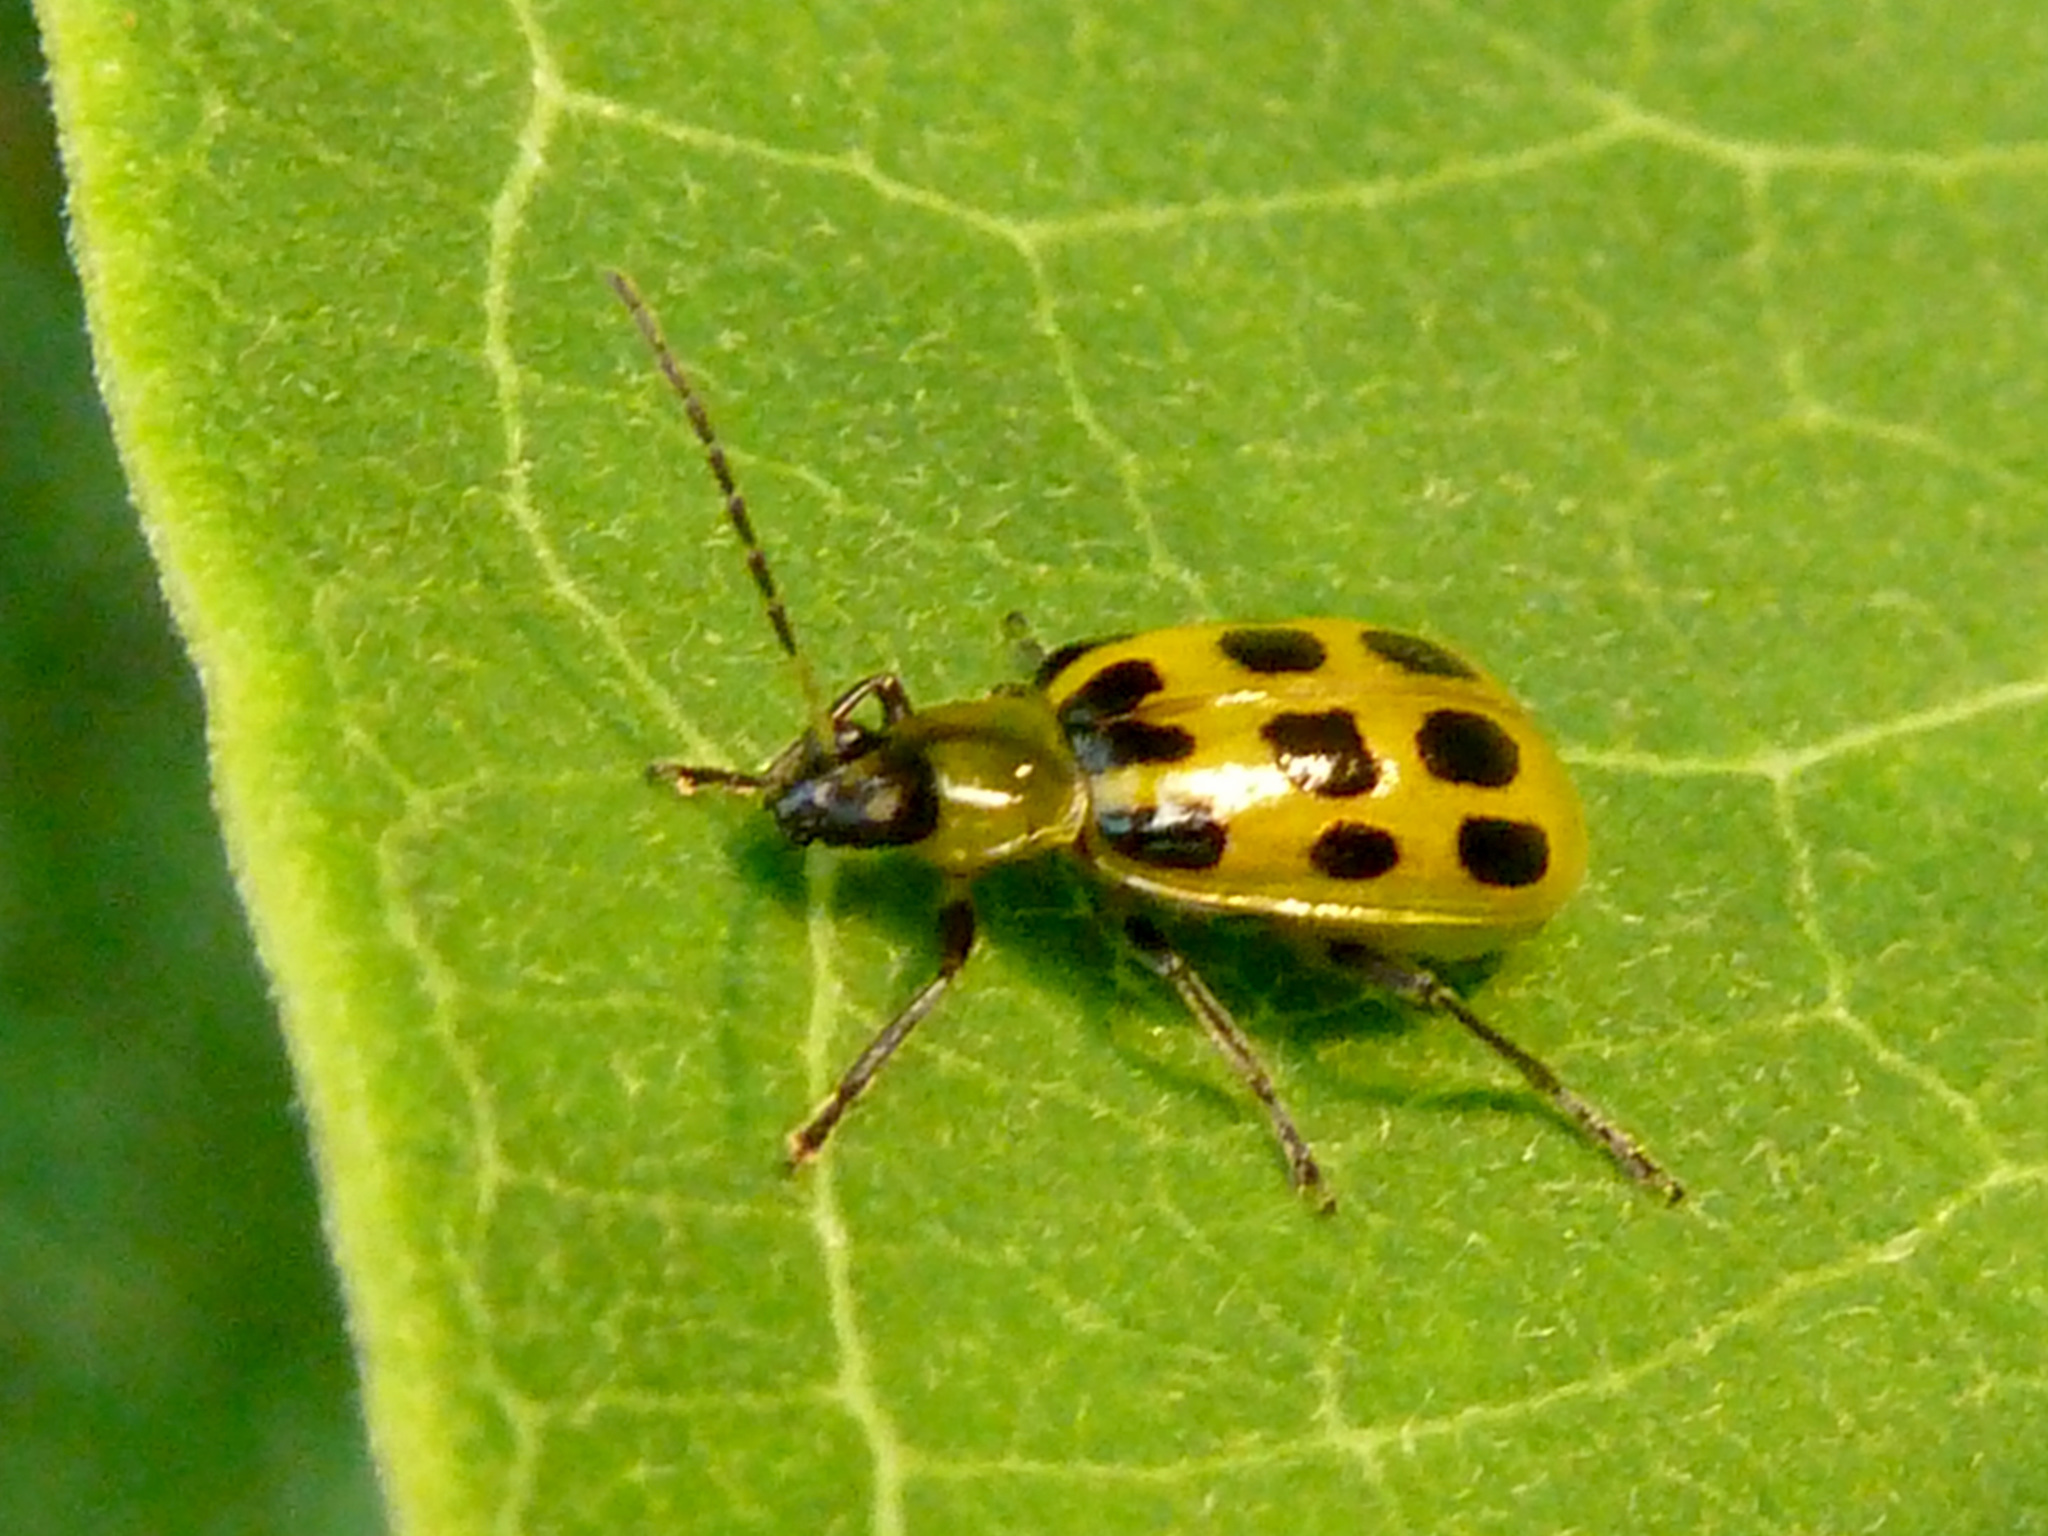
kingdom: Animalia
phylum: Arthropoda
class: Insecta
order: Coleoptera
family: Chrysomelidae
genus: Diabrotica
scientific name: Diabrotica undecimpunctata
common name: Spotted cucumber beetle
